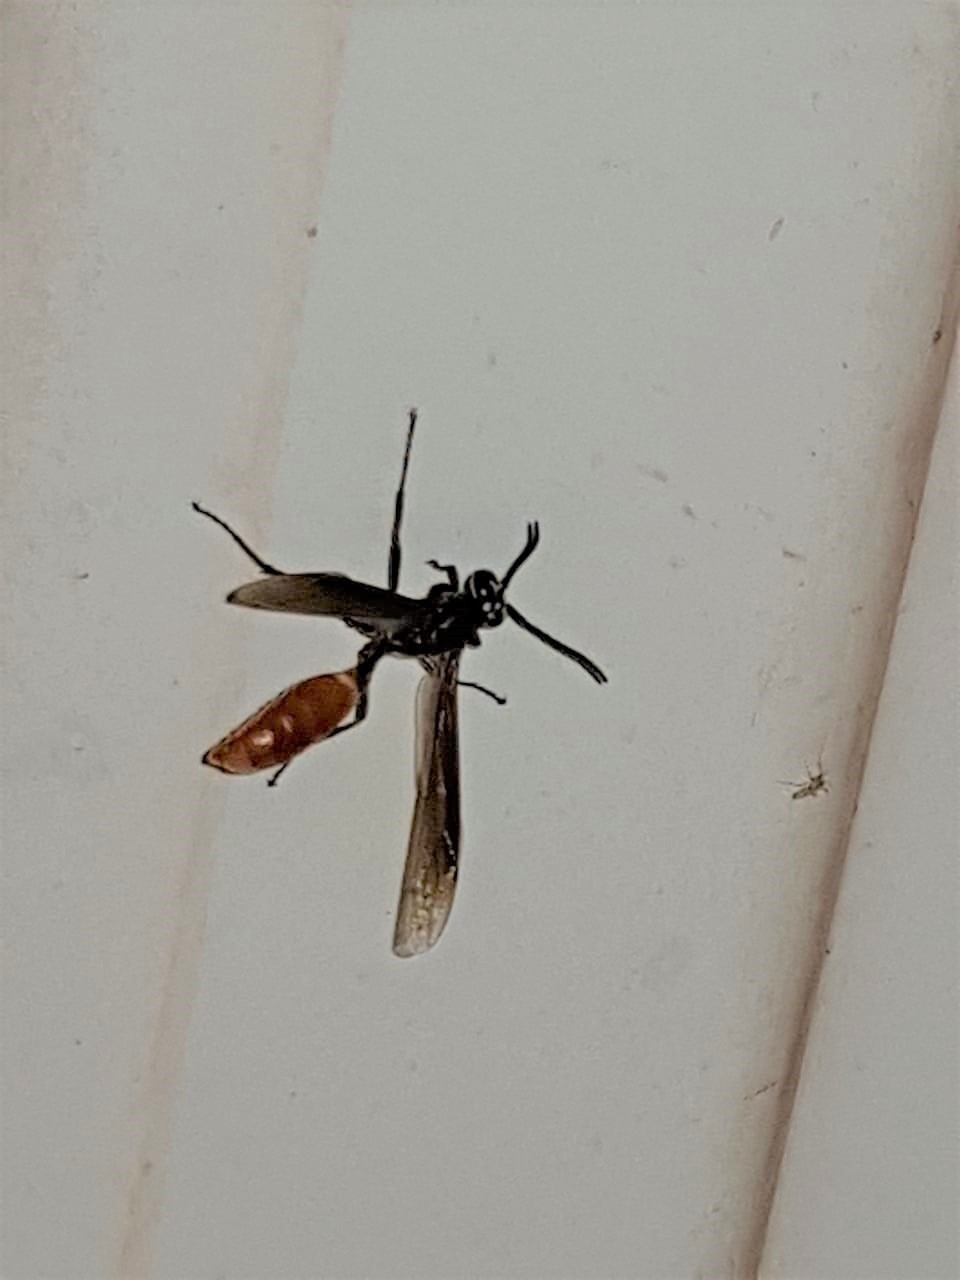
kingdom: Animalia
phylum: Arthropoda
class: Insecta
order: Hymenoptera
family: Vespidae
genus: Apoica
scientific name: Apoica thoracica
